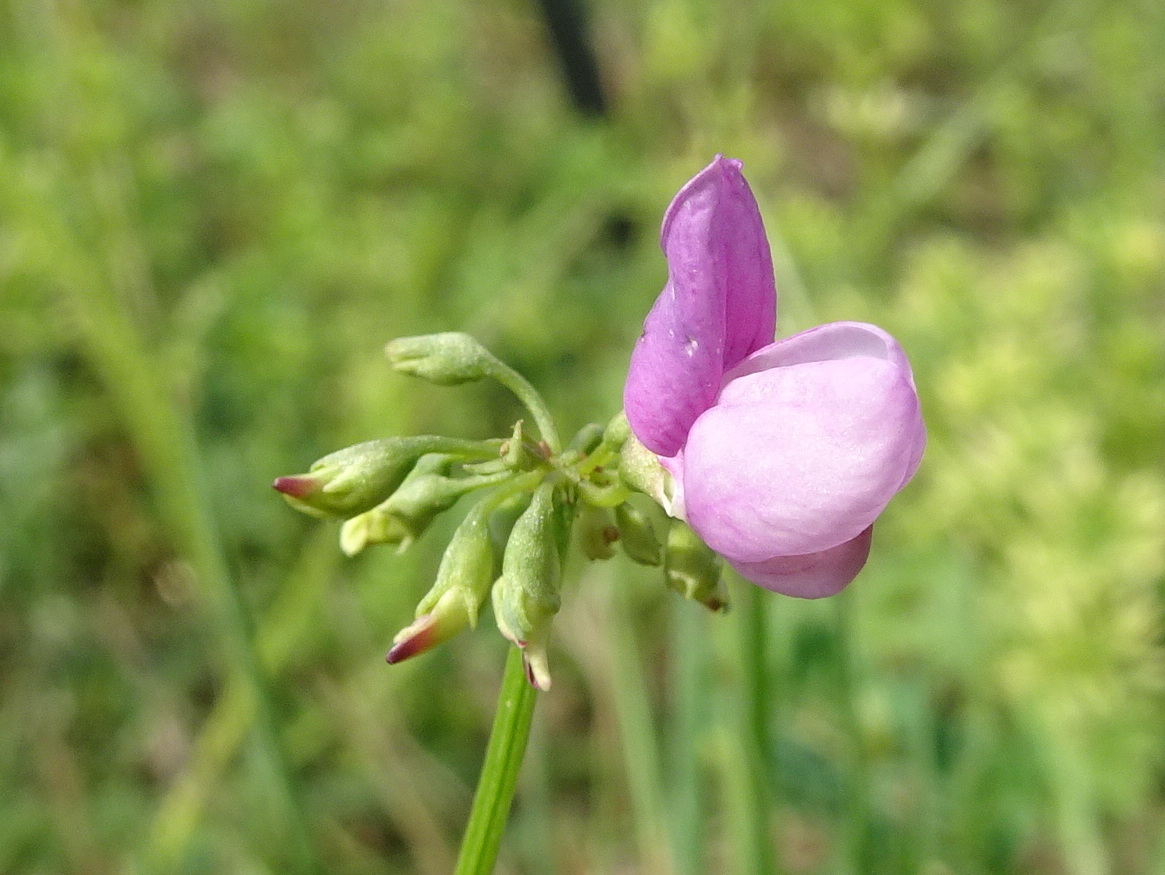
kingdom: Plantae
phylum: Tracheophyta
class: Magnoliopsida
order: Fabales
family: Fabaceae
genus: Coronilla
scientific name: Coronilla varia
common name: Crownvetch
